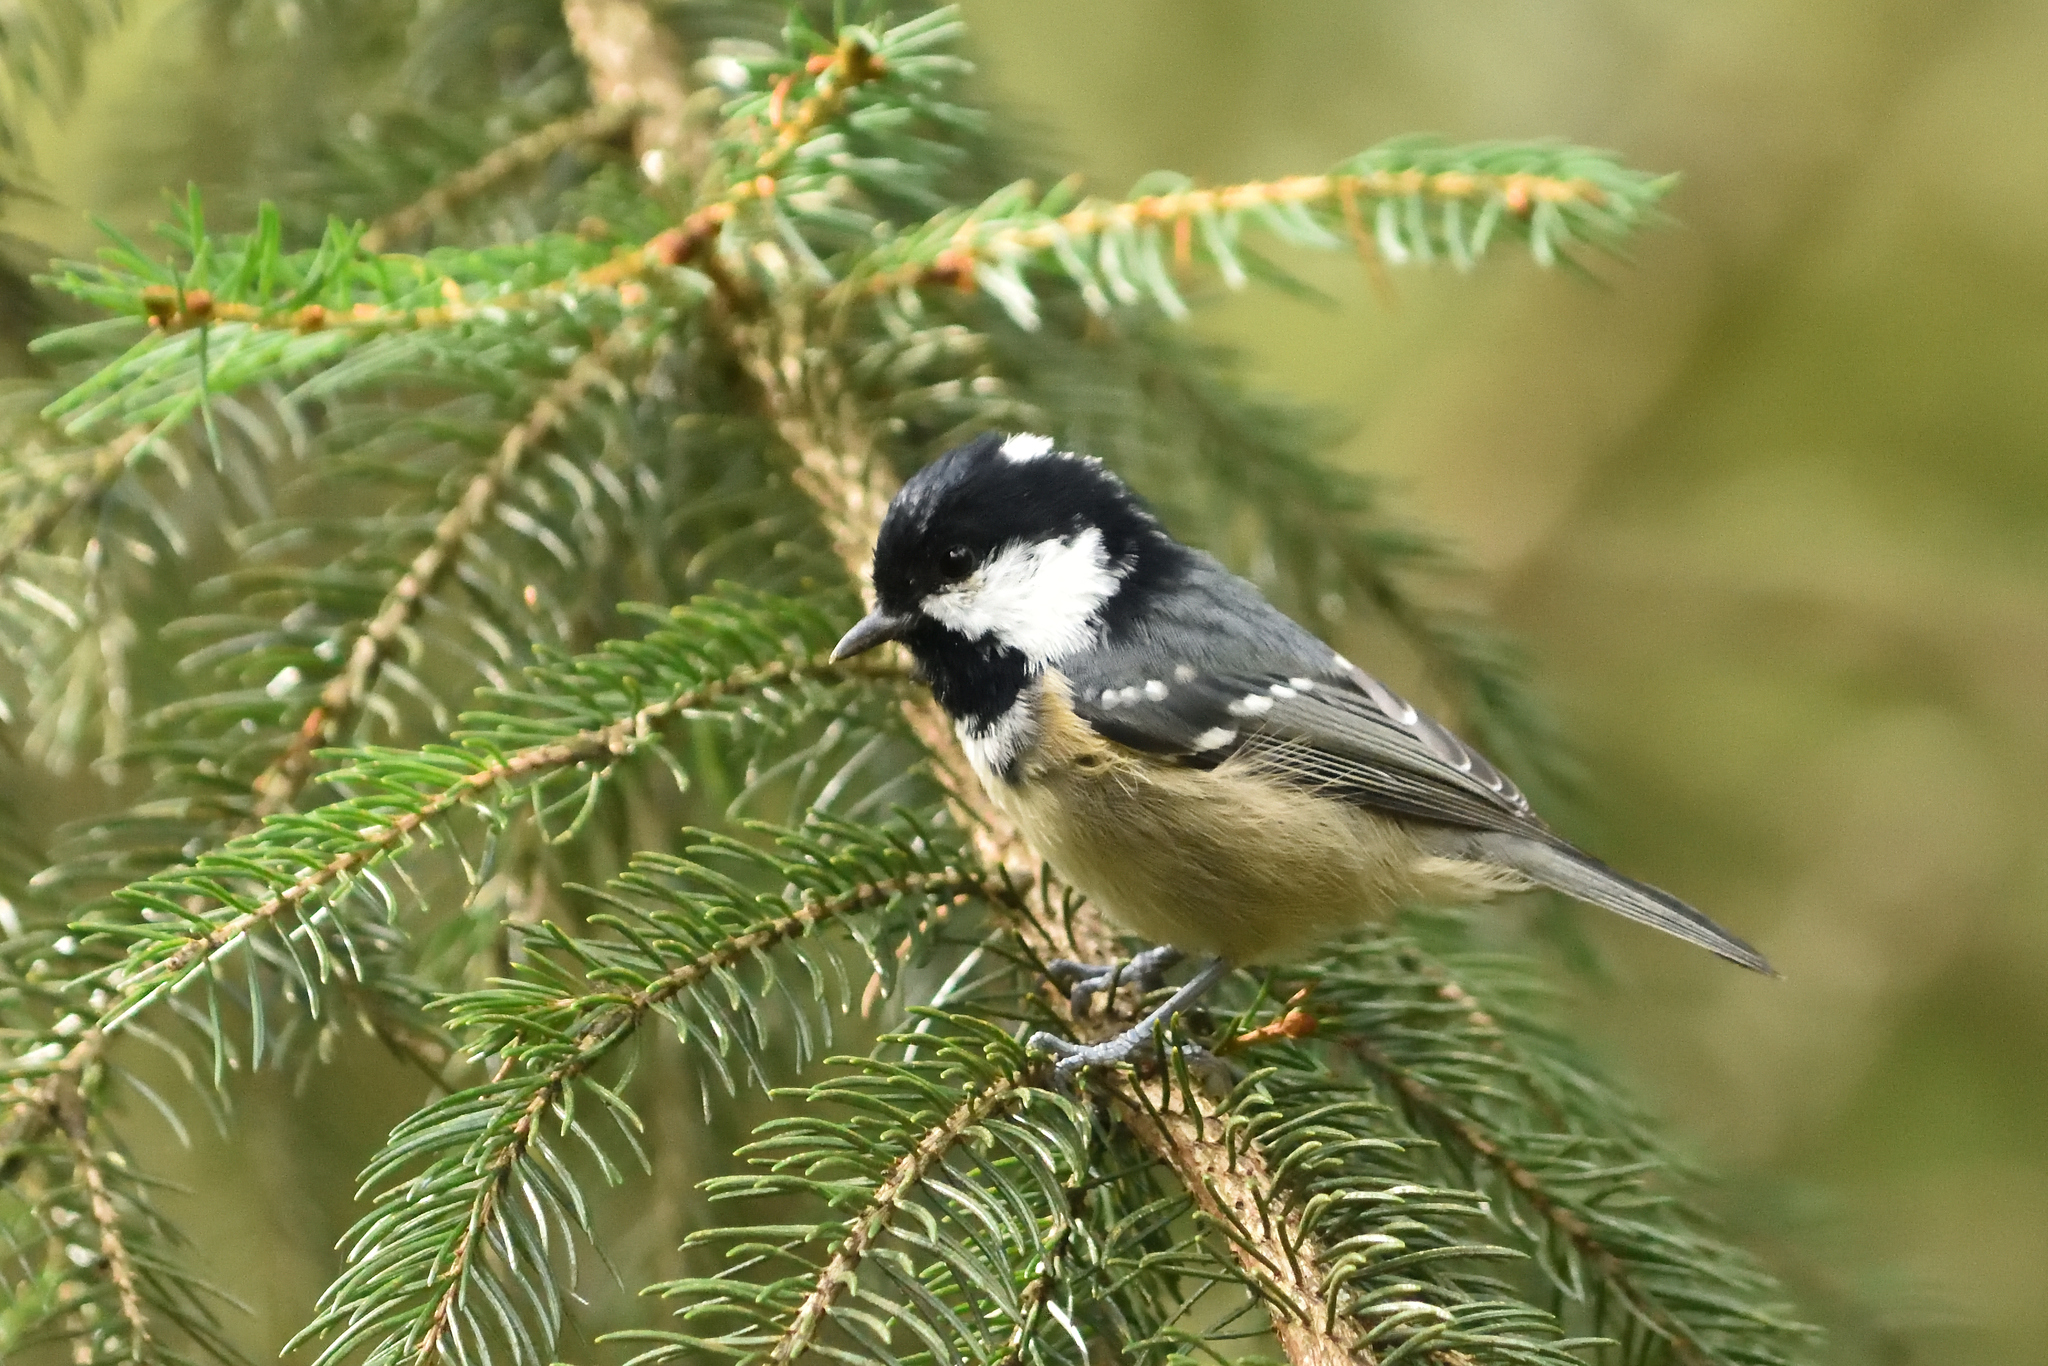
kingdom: Animalia
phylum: Chordata
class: Aves
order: Passeriformes
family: Paridae
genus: Periparus
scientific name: Periparus ater
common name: Coal tit
